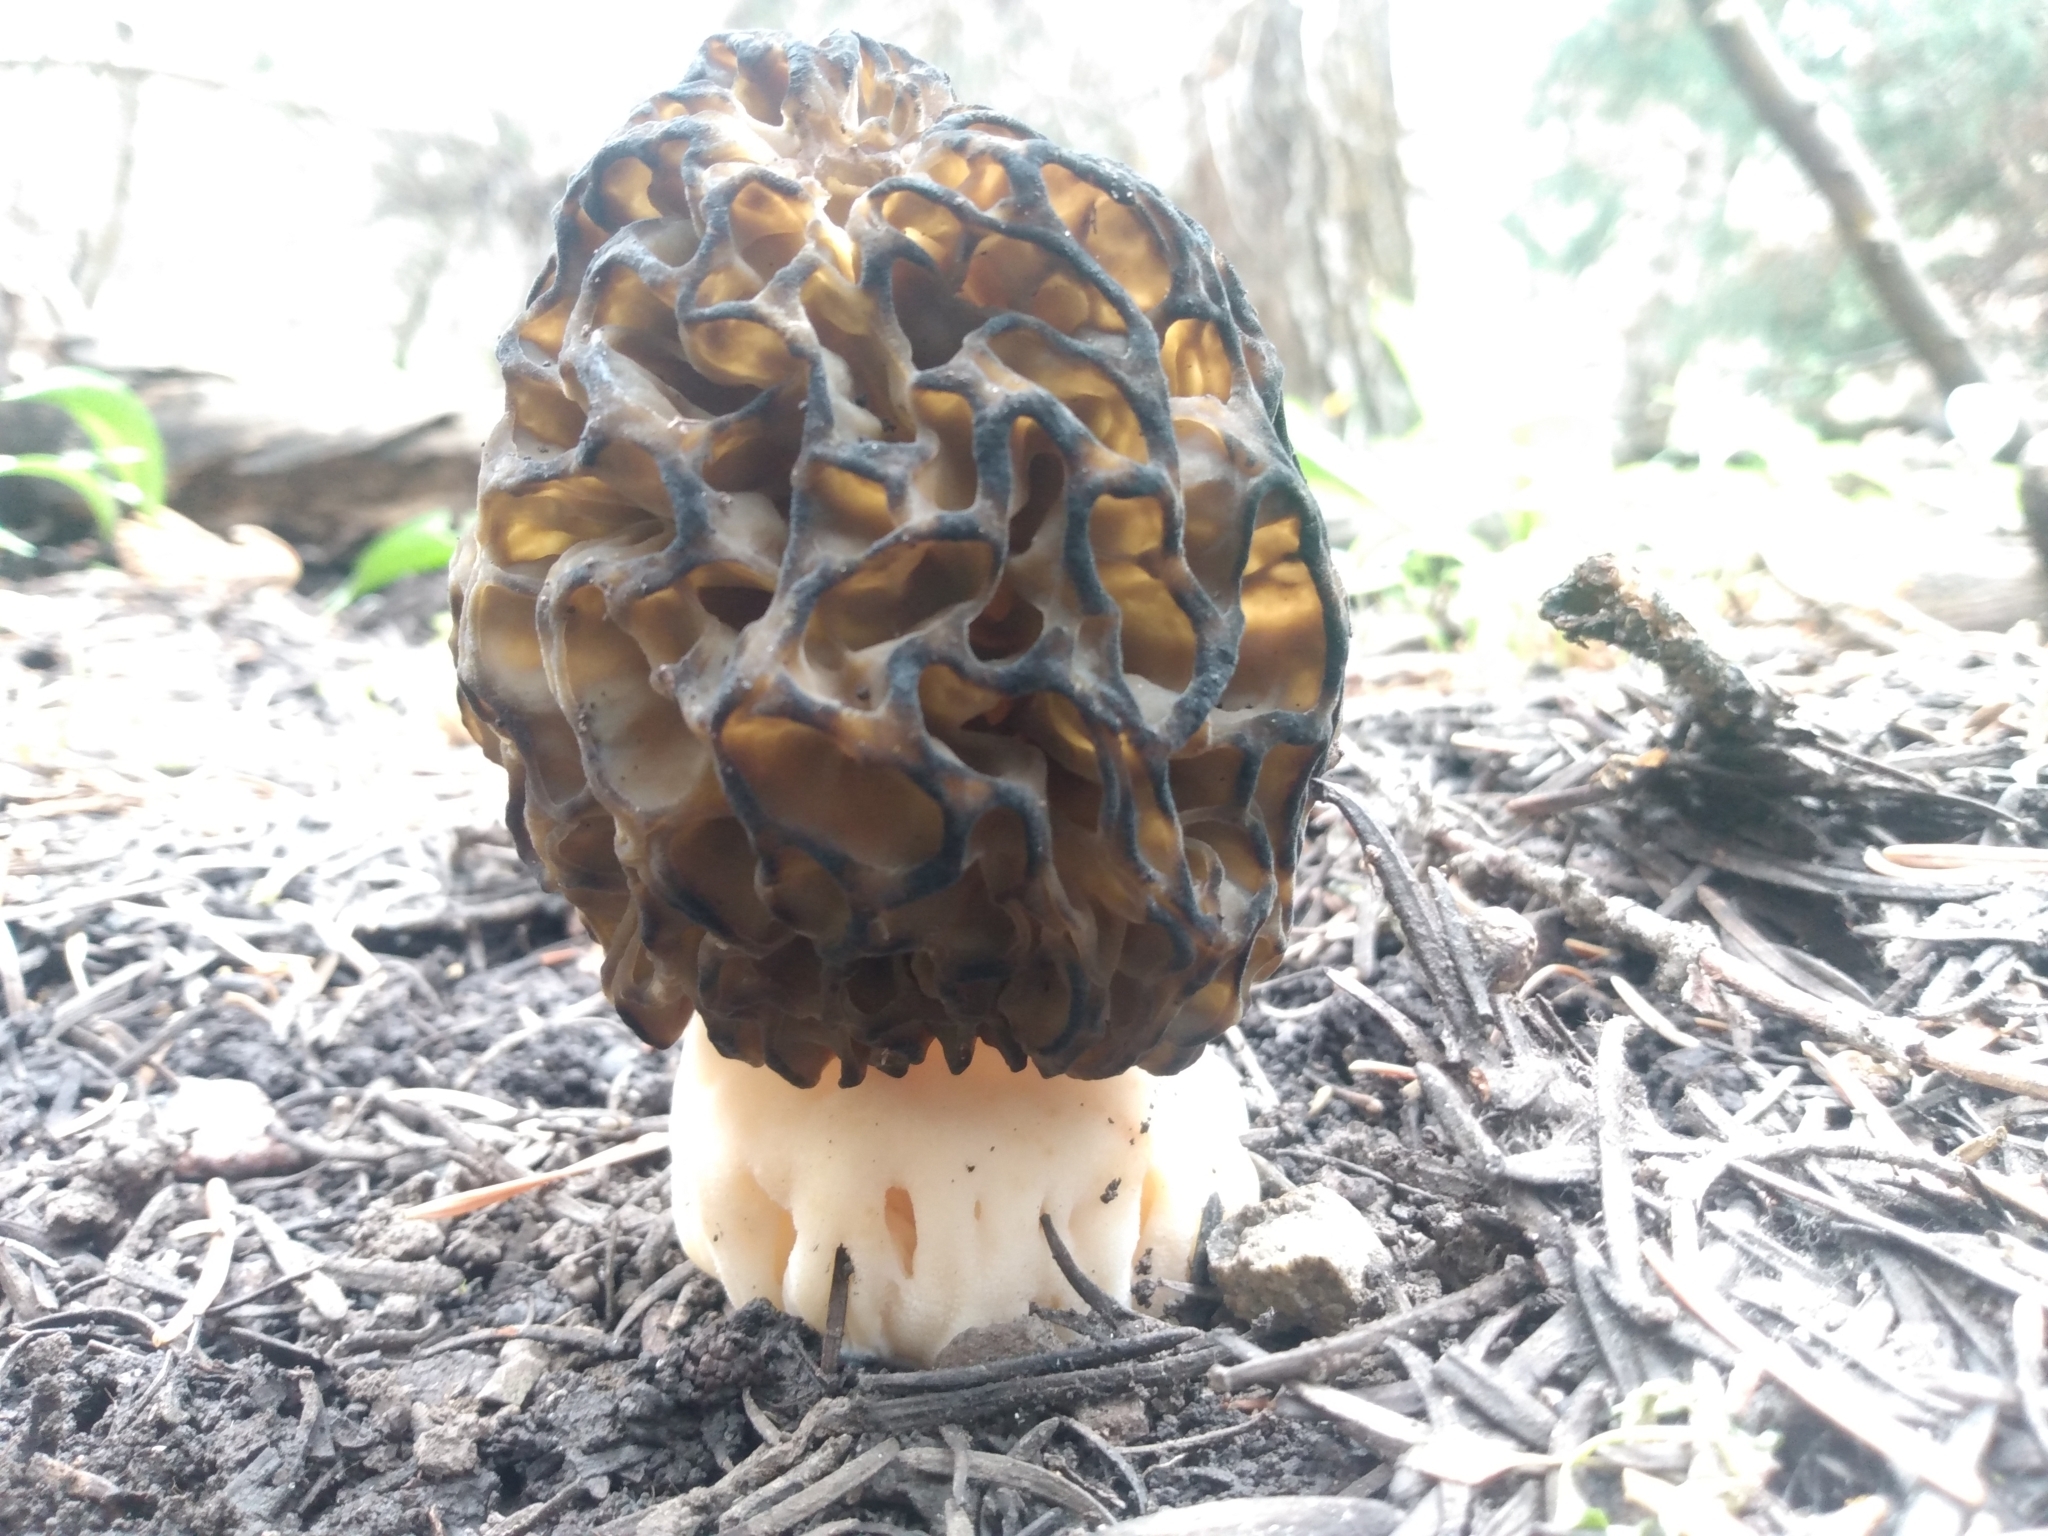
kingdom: Fungi
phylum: Ascomycota
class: Pezizomycetes
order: Pezizales
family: Morchellaceae
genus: Morchella
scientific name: Morchella snyderi
